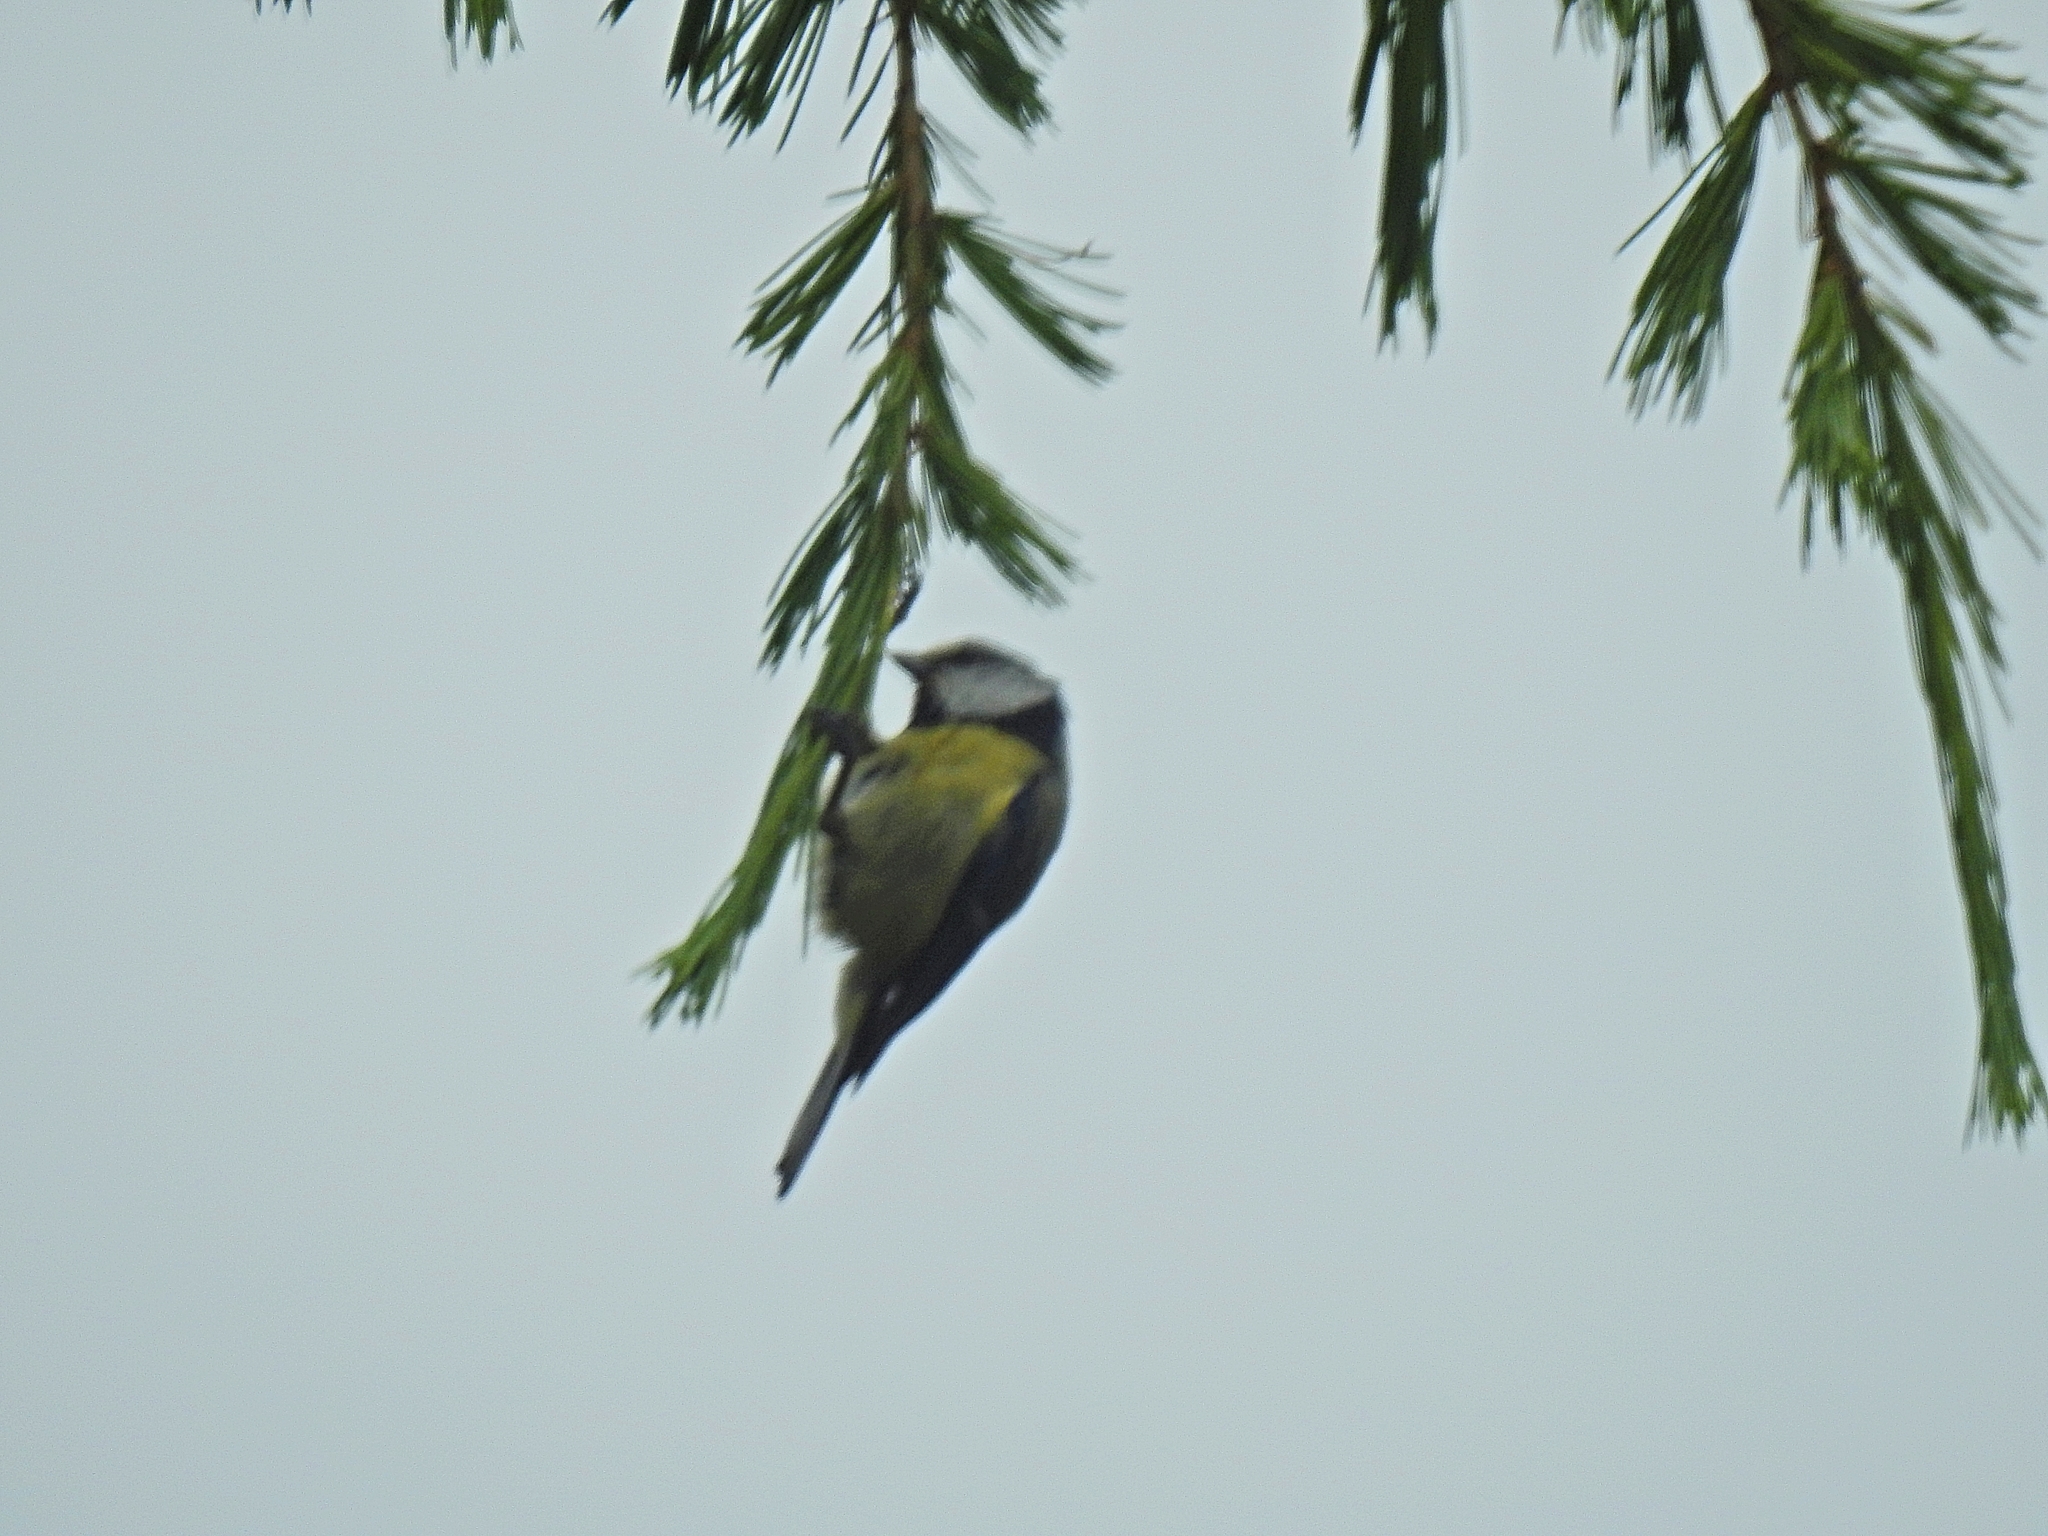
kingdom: Animalia
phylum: Chordata
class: Aves
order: Passeriformes
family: Paridae
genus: Cyanistes
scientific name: Cyanistes caeruleus
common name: Eurasian blue tit
